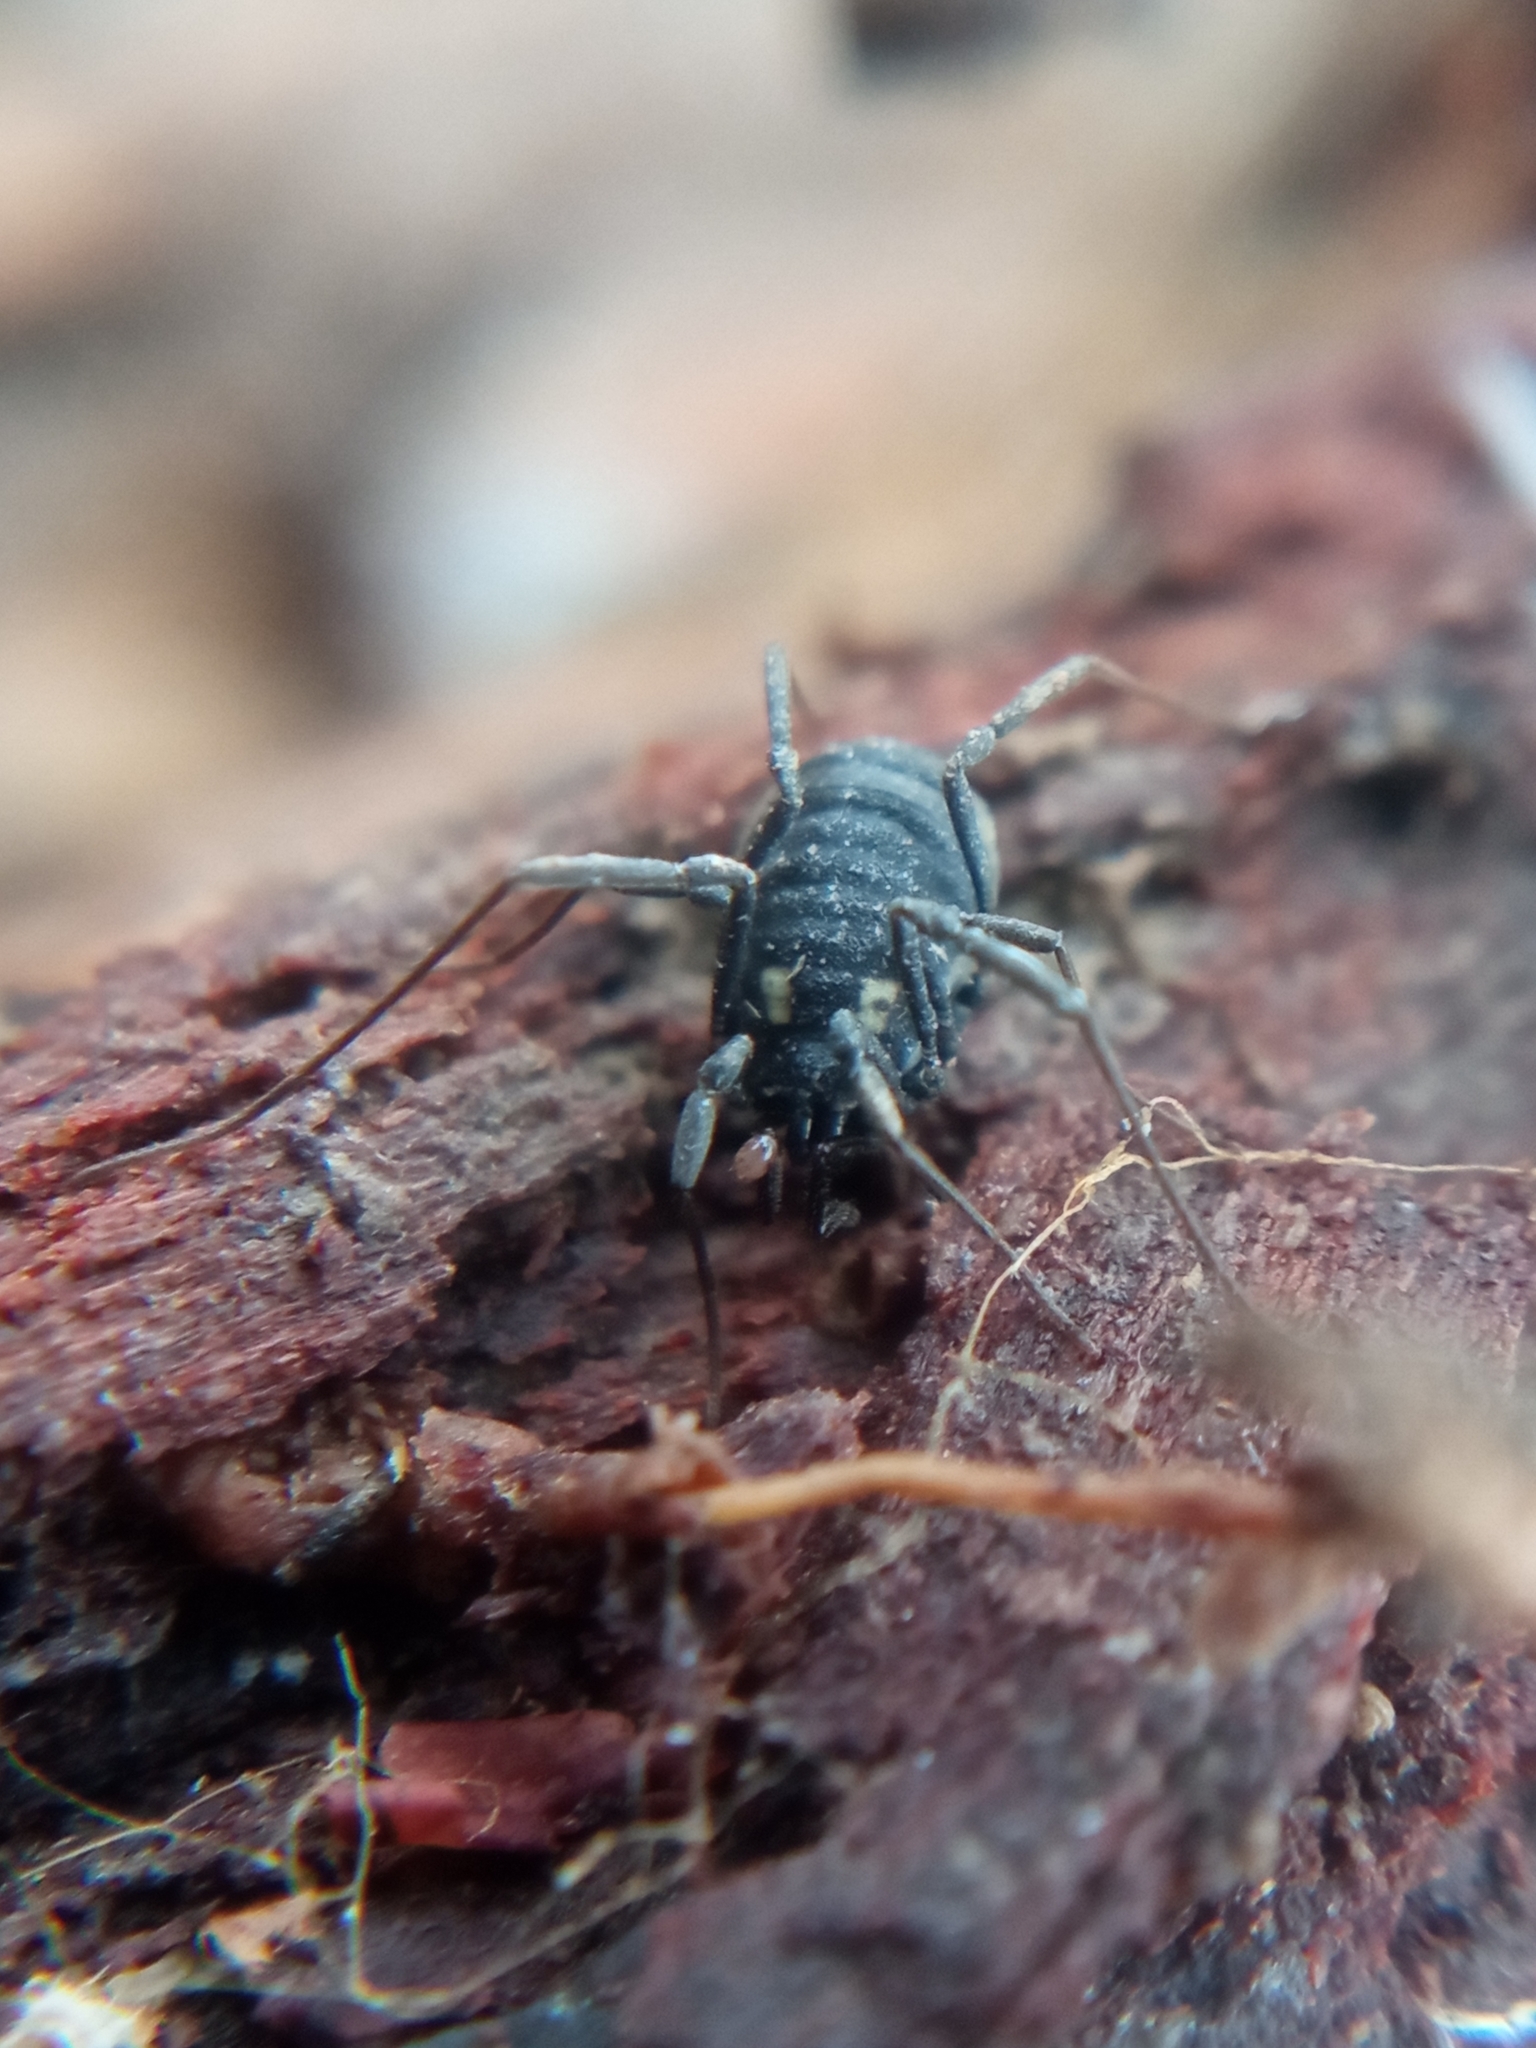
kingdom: Animalia
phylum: Arthropoda
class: Arachnida
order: Opiliones
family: Nemastomatidae
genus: Nemastoma
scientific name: Nemastoma lugubre
